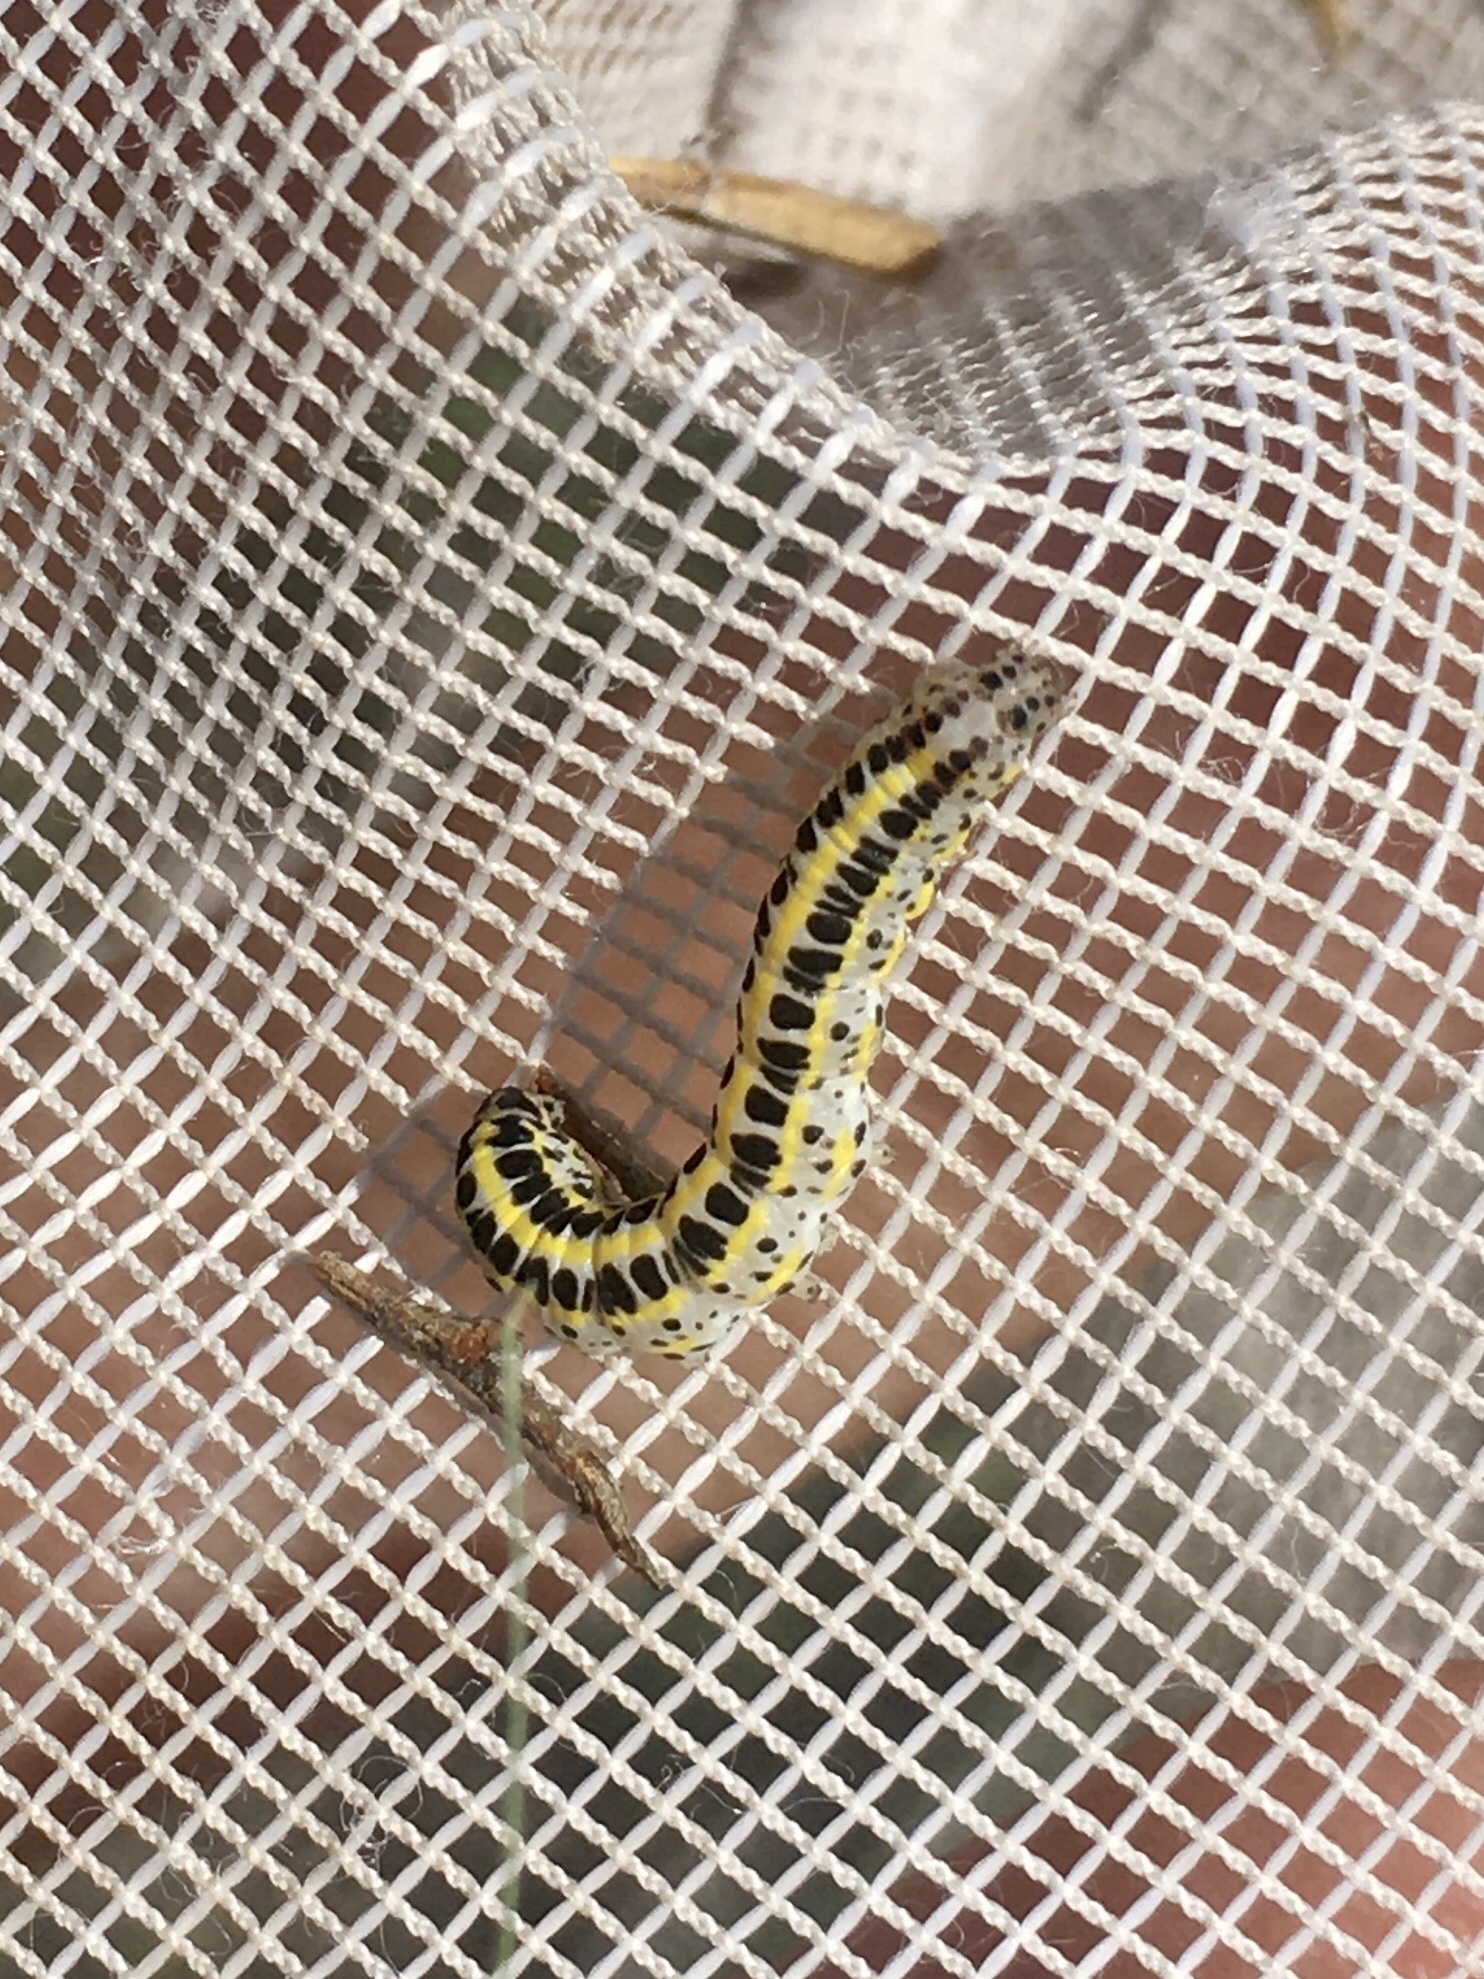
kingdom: Animalia
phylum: Arthropoda
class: Insecta
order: Lepidoptera
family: Noctuidae
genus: Calophasia
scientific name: Calophasia lunula
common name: Toadflax brocade
